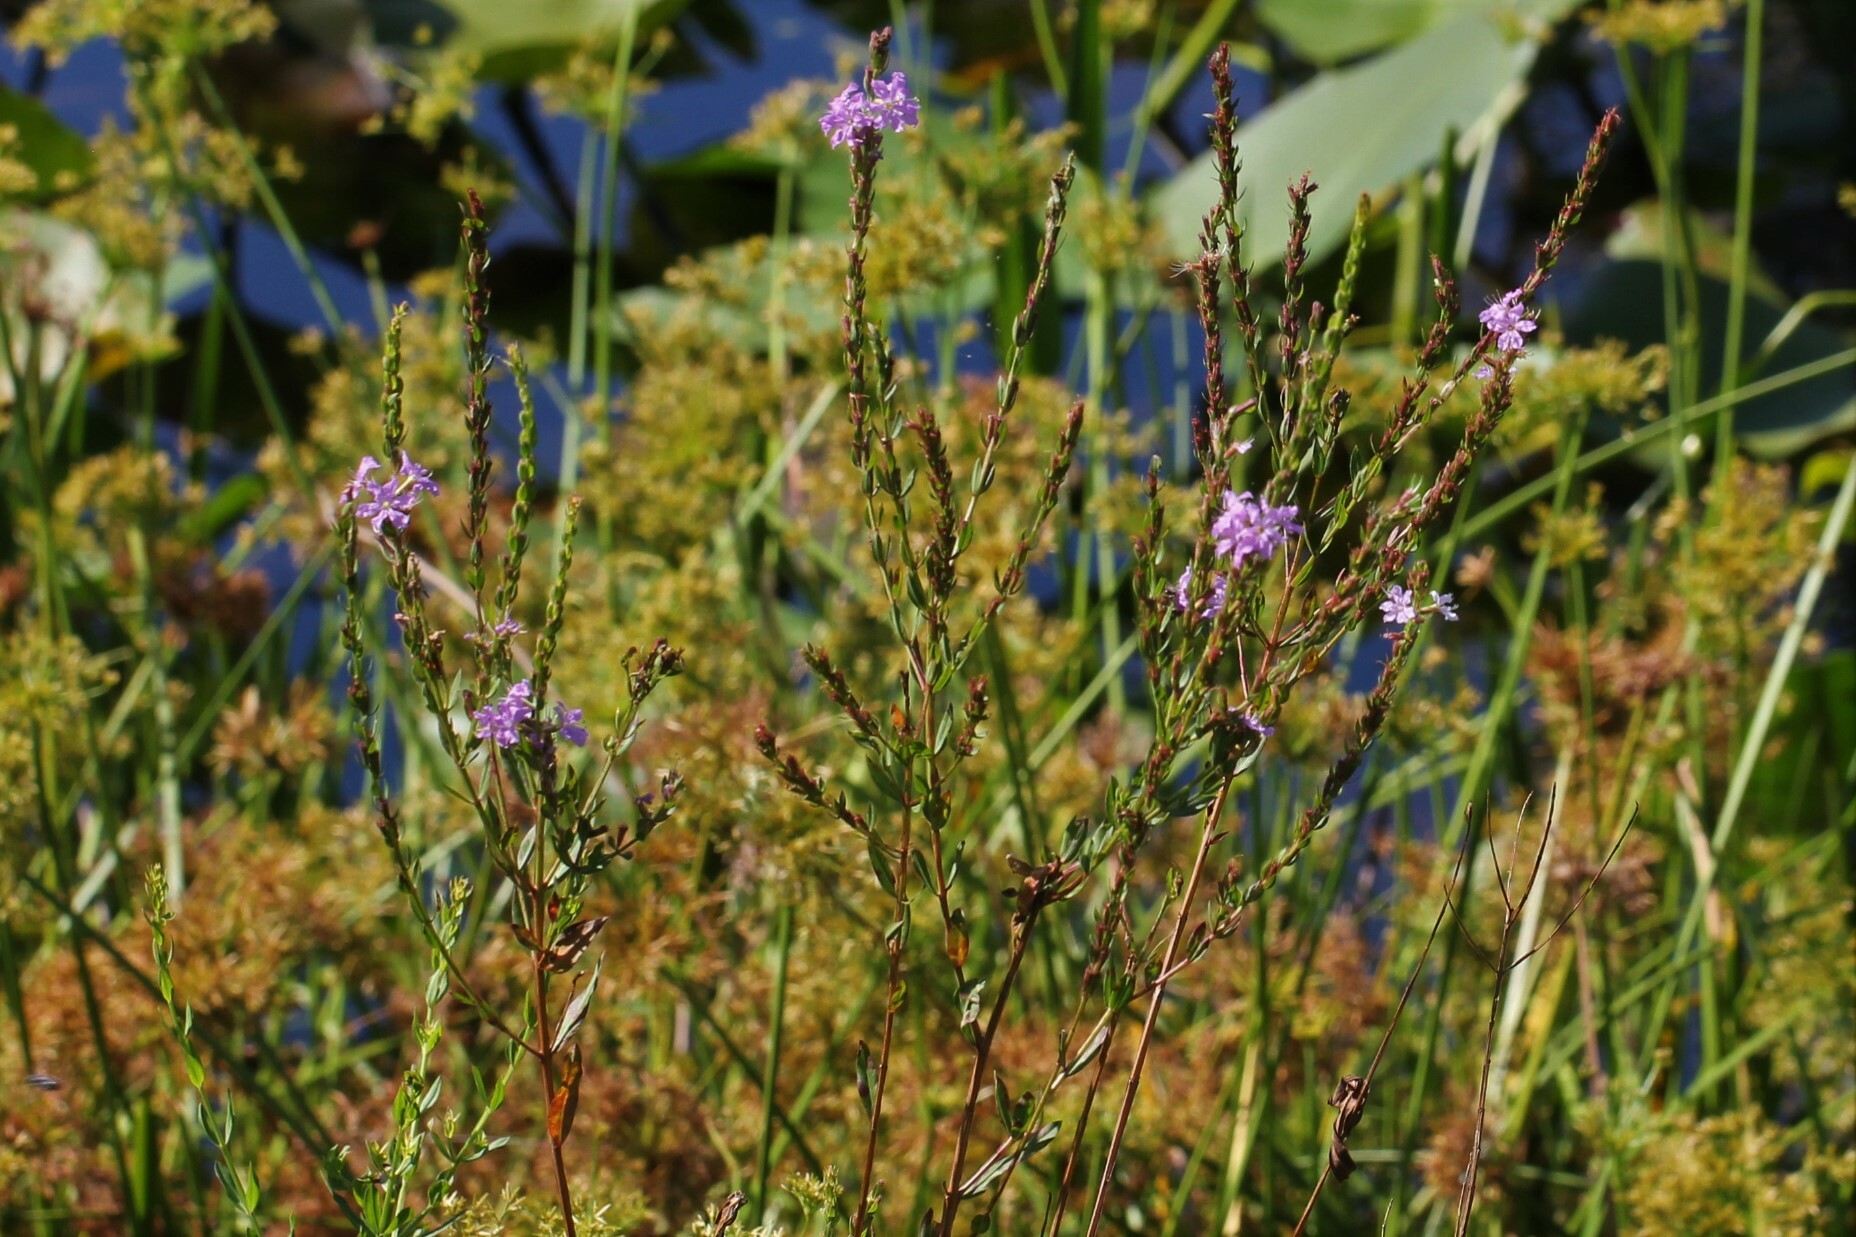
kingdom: Plantae
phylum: Tracheophyta
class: Magnoliopsida
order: Myrtales
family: Lythraceae
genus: Lythrum
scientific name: Lythrum alatum
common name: Winged loosestrife
